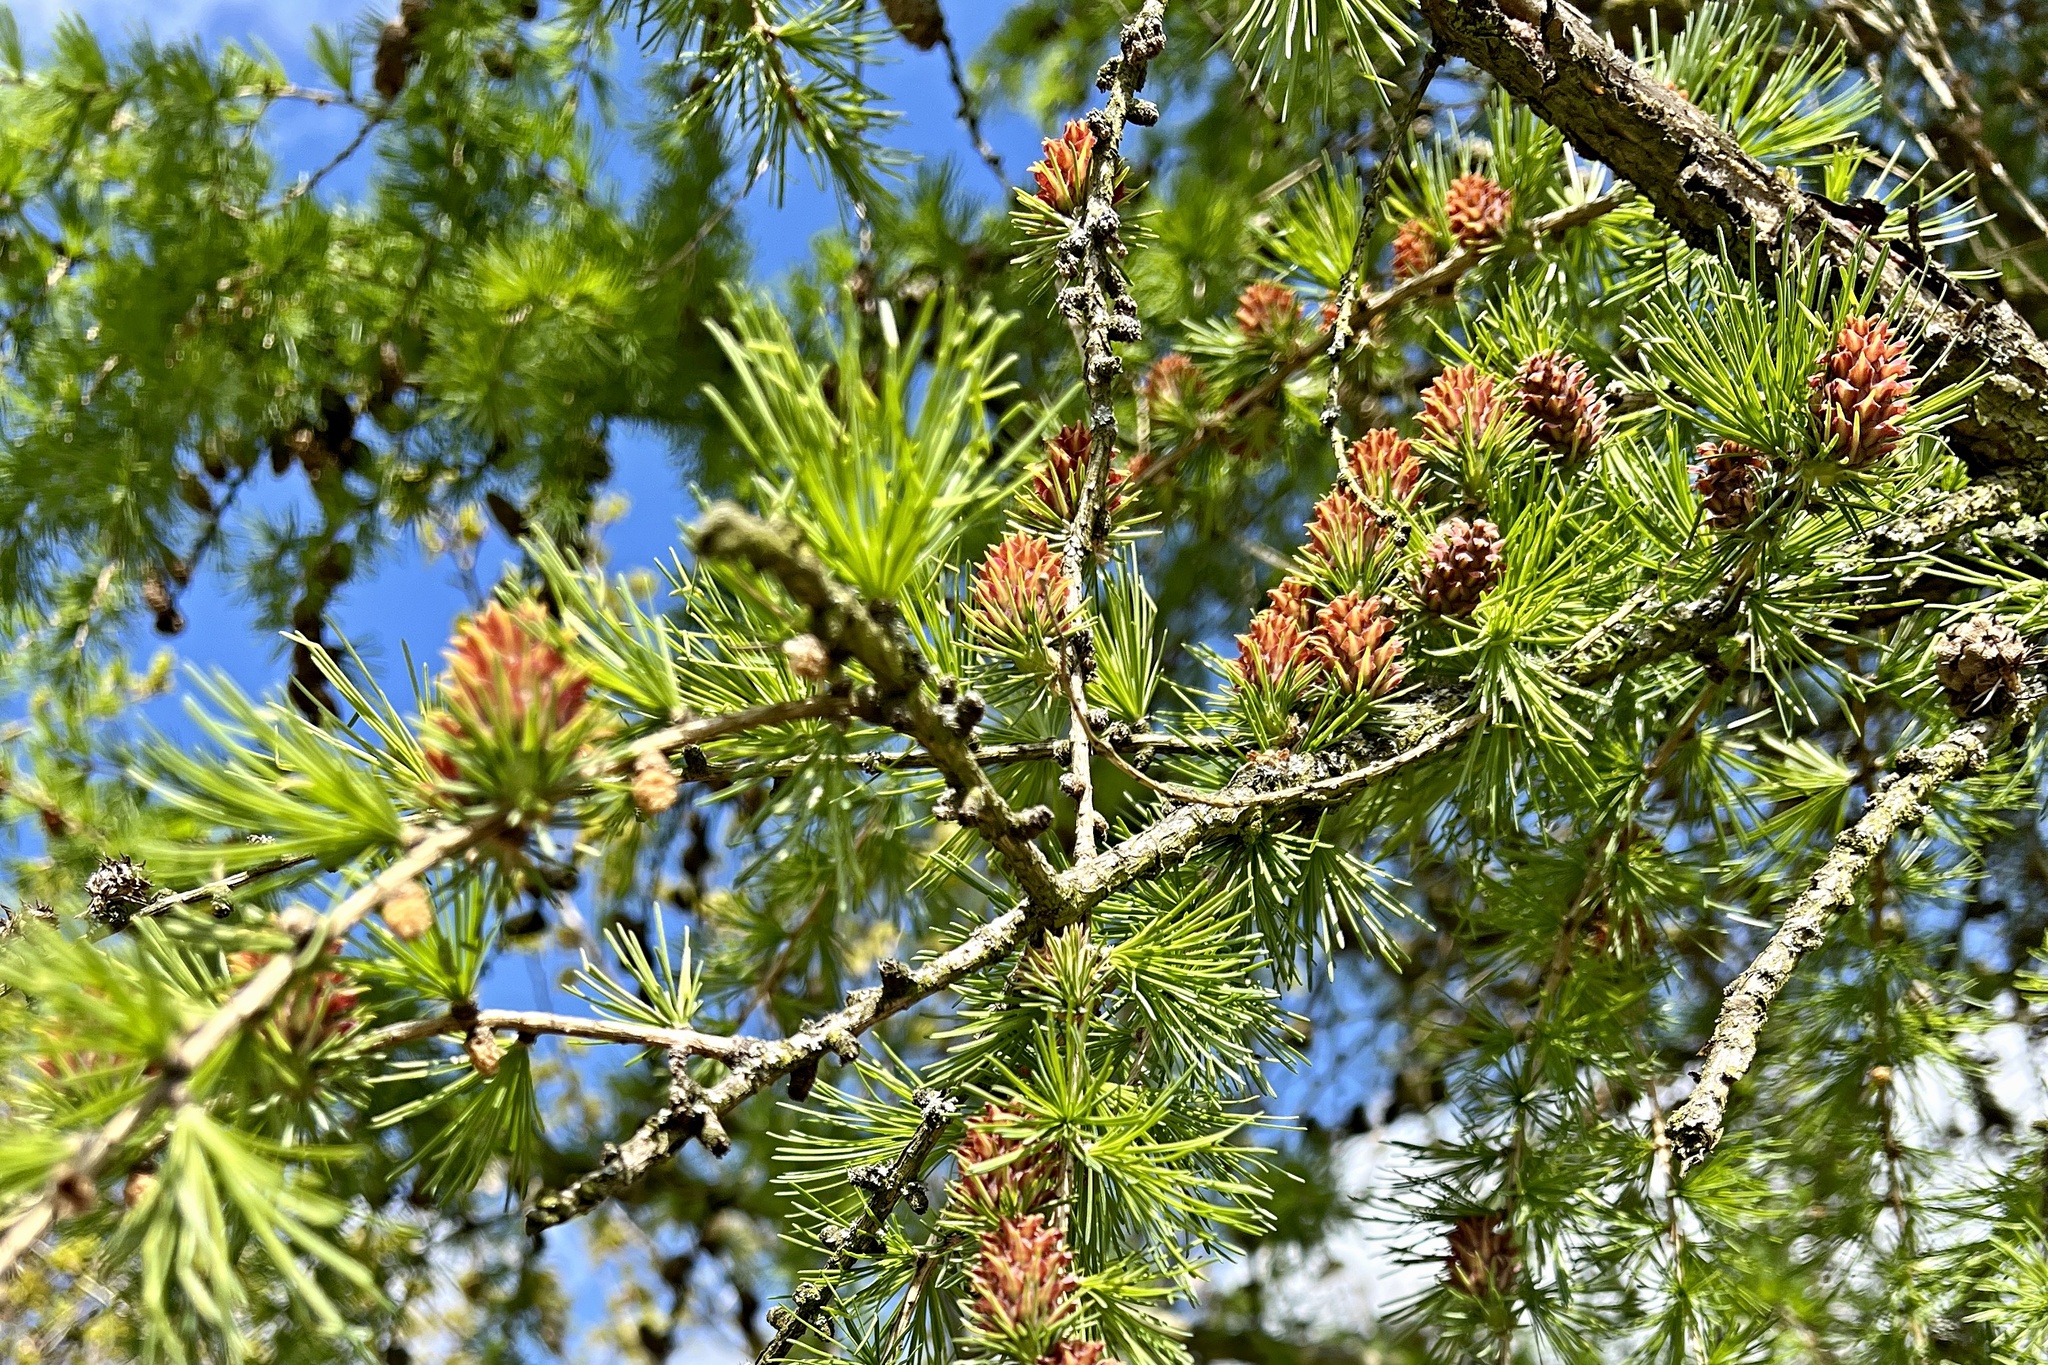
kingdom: Plantae
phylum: Tracheophyta
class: Pinopsida
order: Pinales
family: Pinaceae
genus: Larix
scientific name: Larix decidua
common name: European larch
